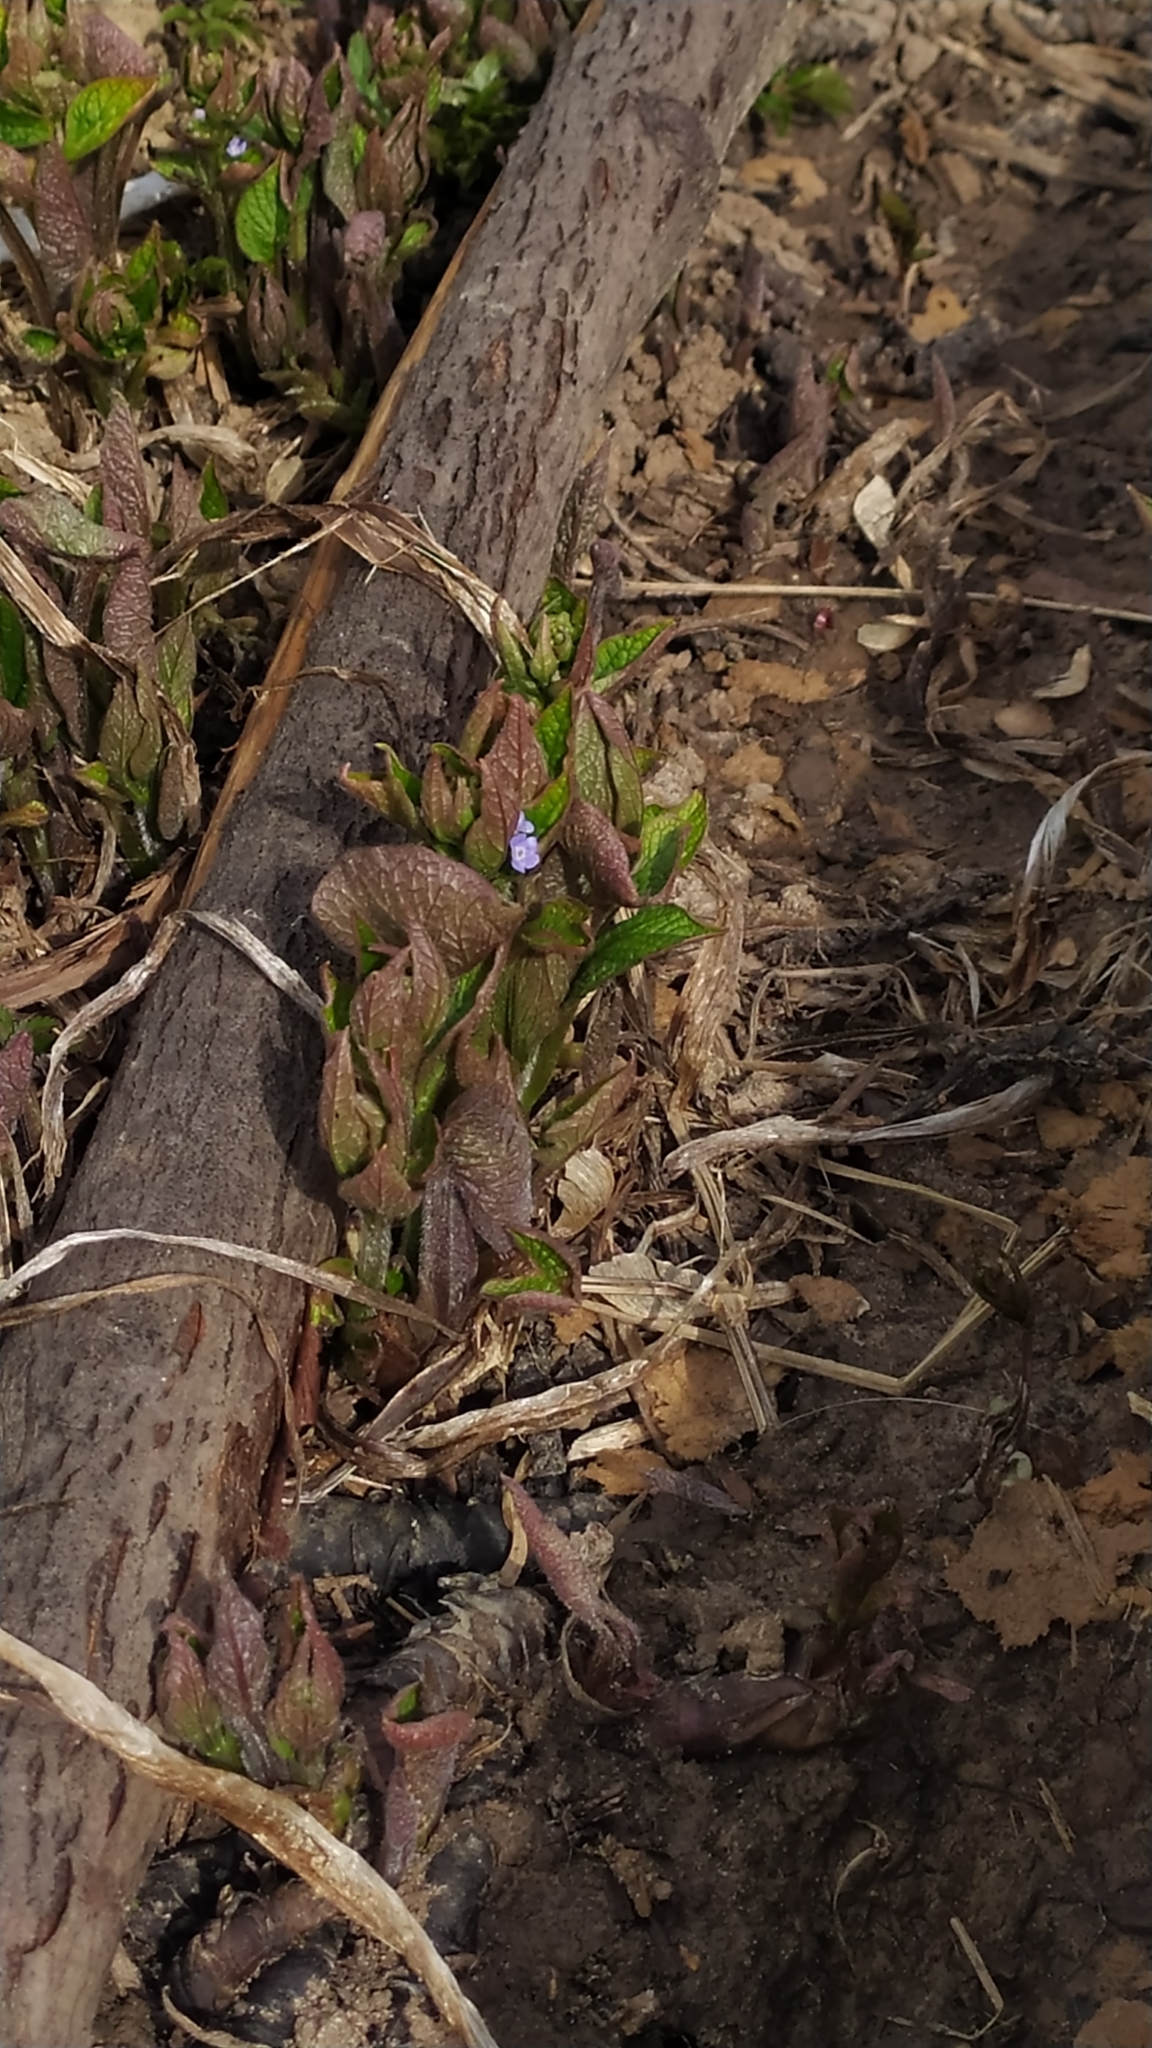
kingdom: Plantae
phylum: Tracheophyta
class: Magnoliopsida
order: Boraginales
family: Boraginaceae
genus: Brunnera
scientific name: Brunnera sibirica
